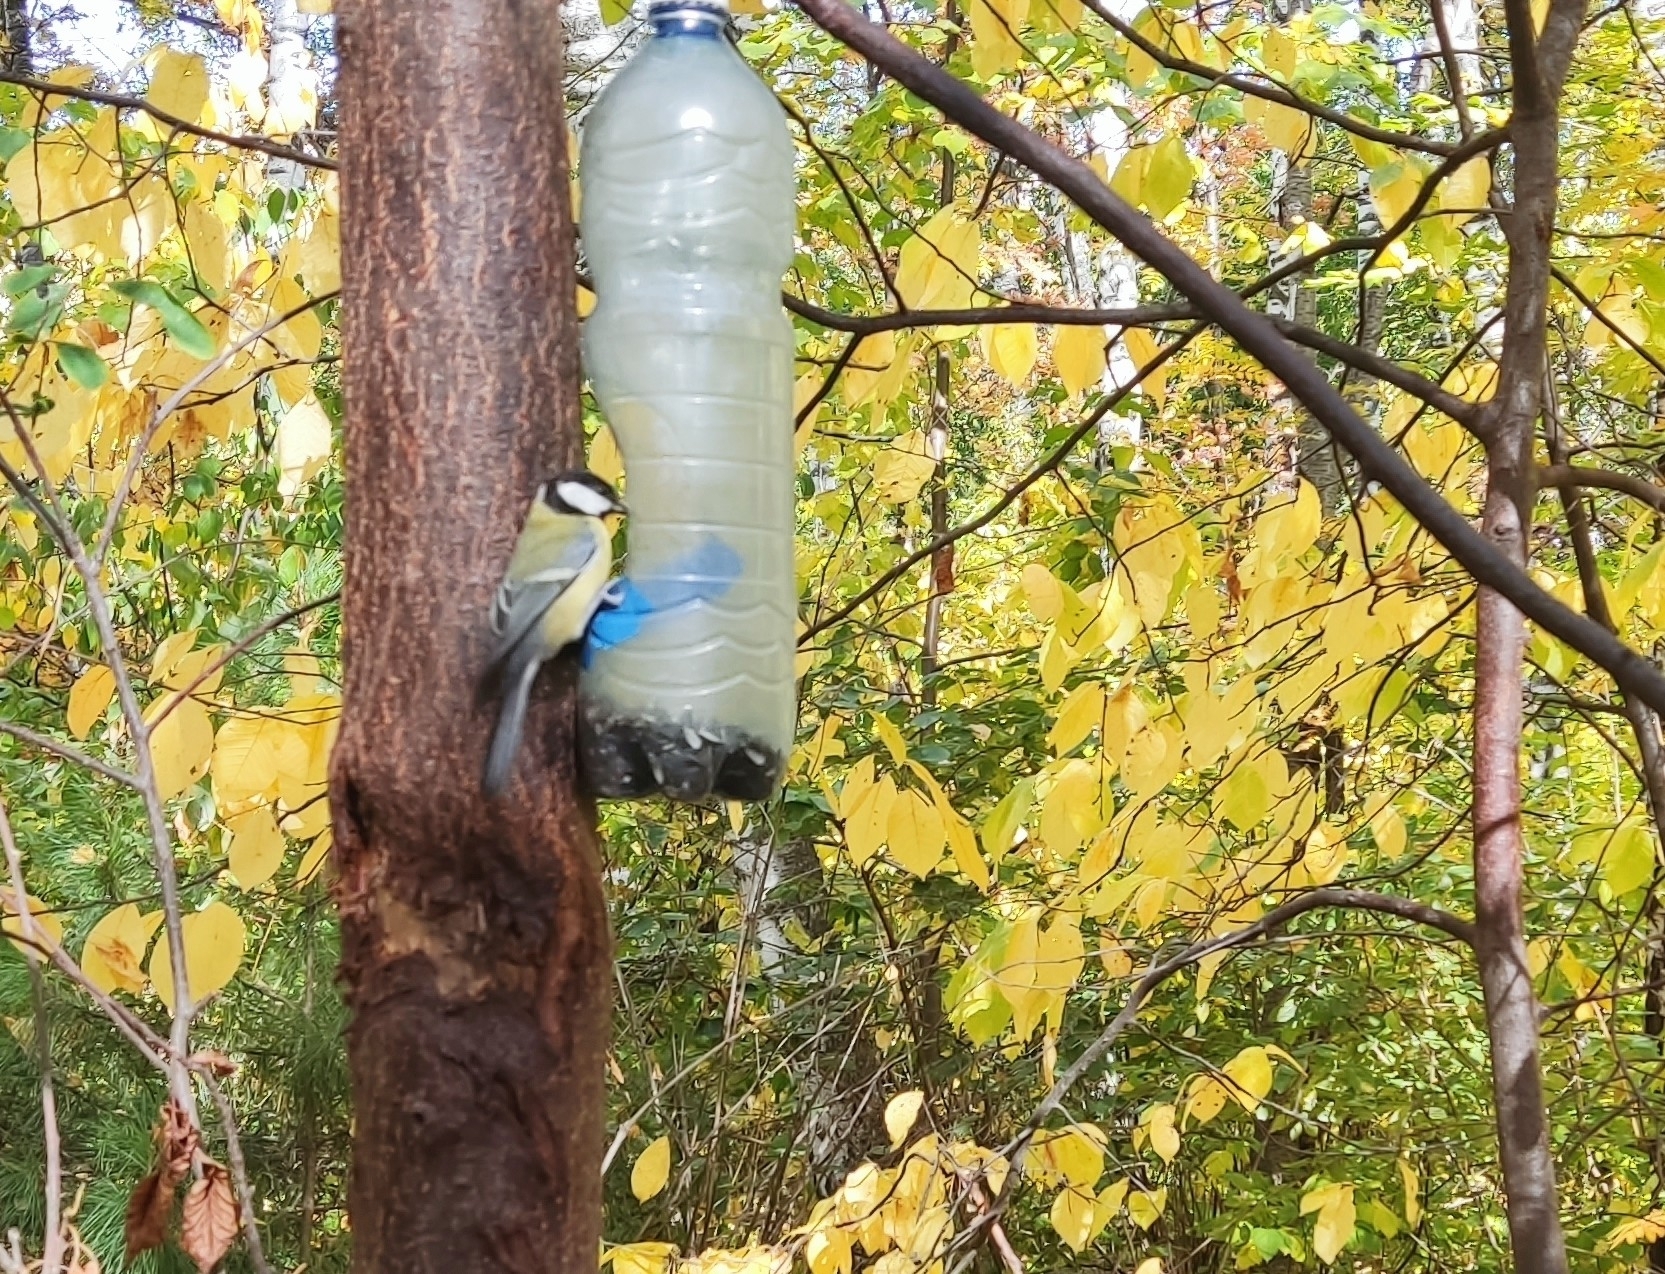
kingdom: Animalia
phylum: Chordata
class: Aves
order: Passeriformes
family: Paridae
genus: Parus
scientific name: Parus major
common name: Great tit
